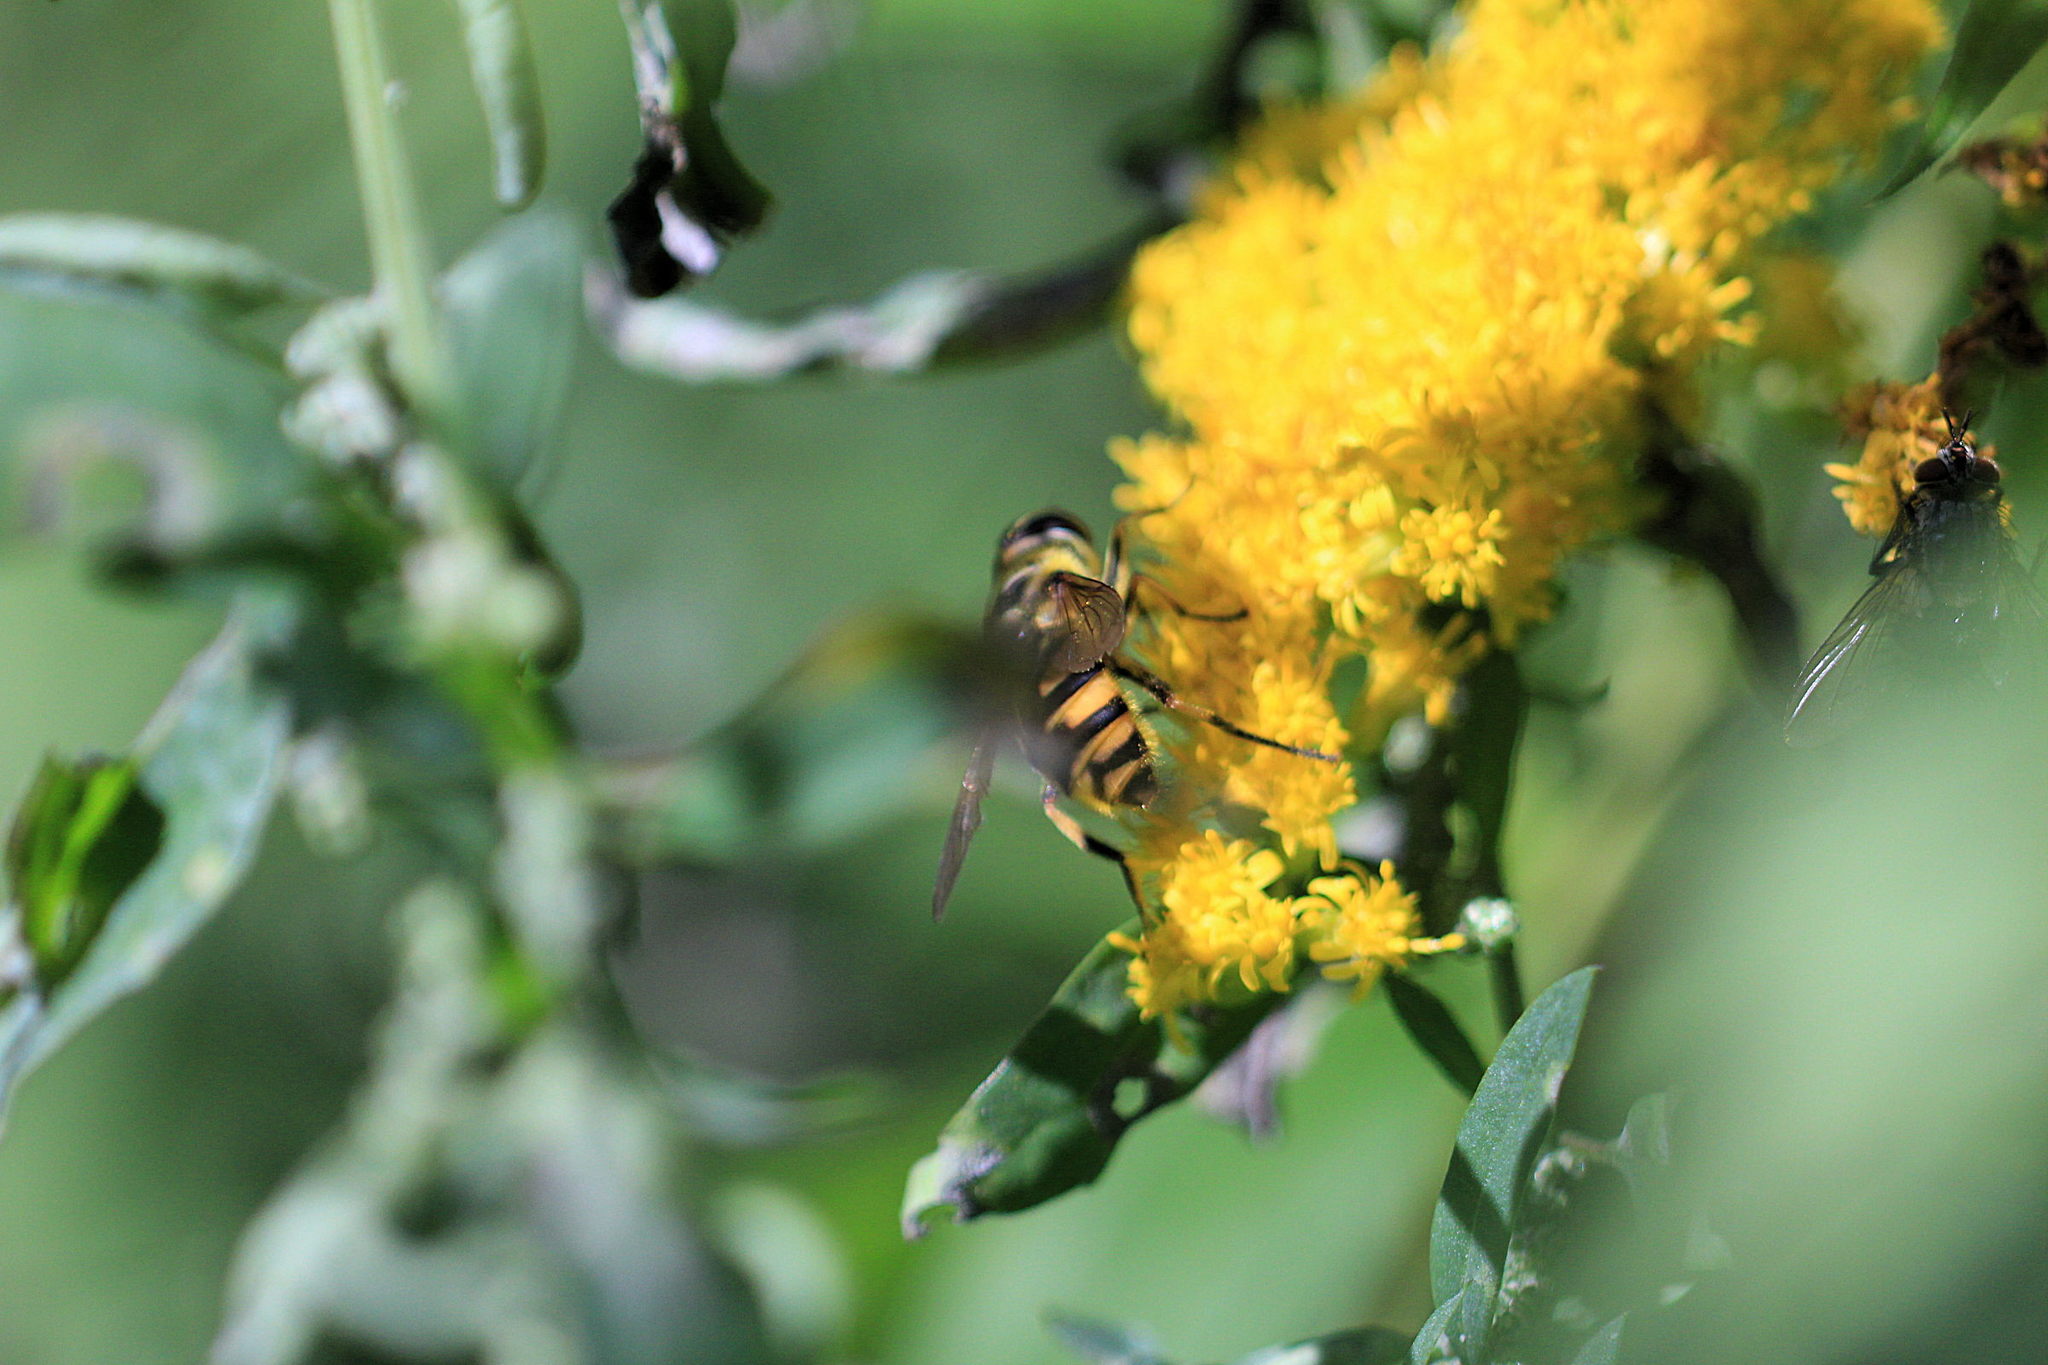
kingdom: Animalia
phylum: Arthropoda
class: Insecta
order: Diptera
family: Syrphidae
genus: Myathropa
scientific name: Myathropa florea
